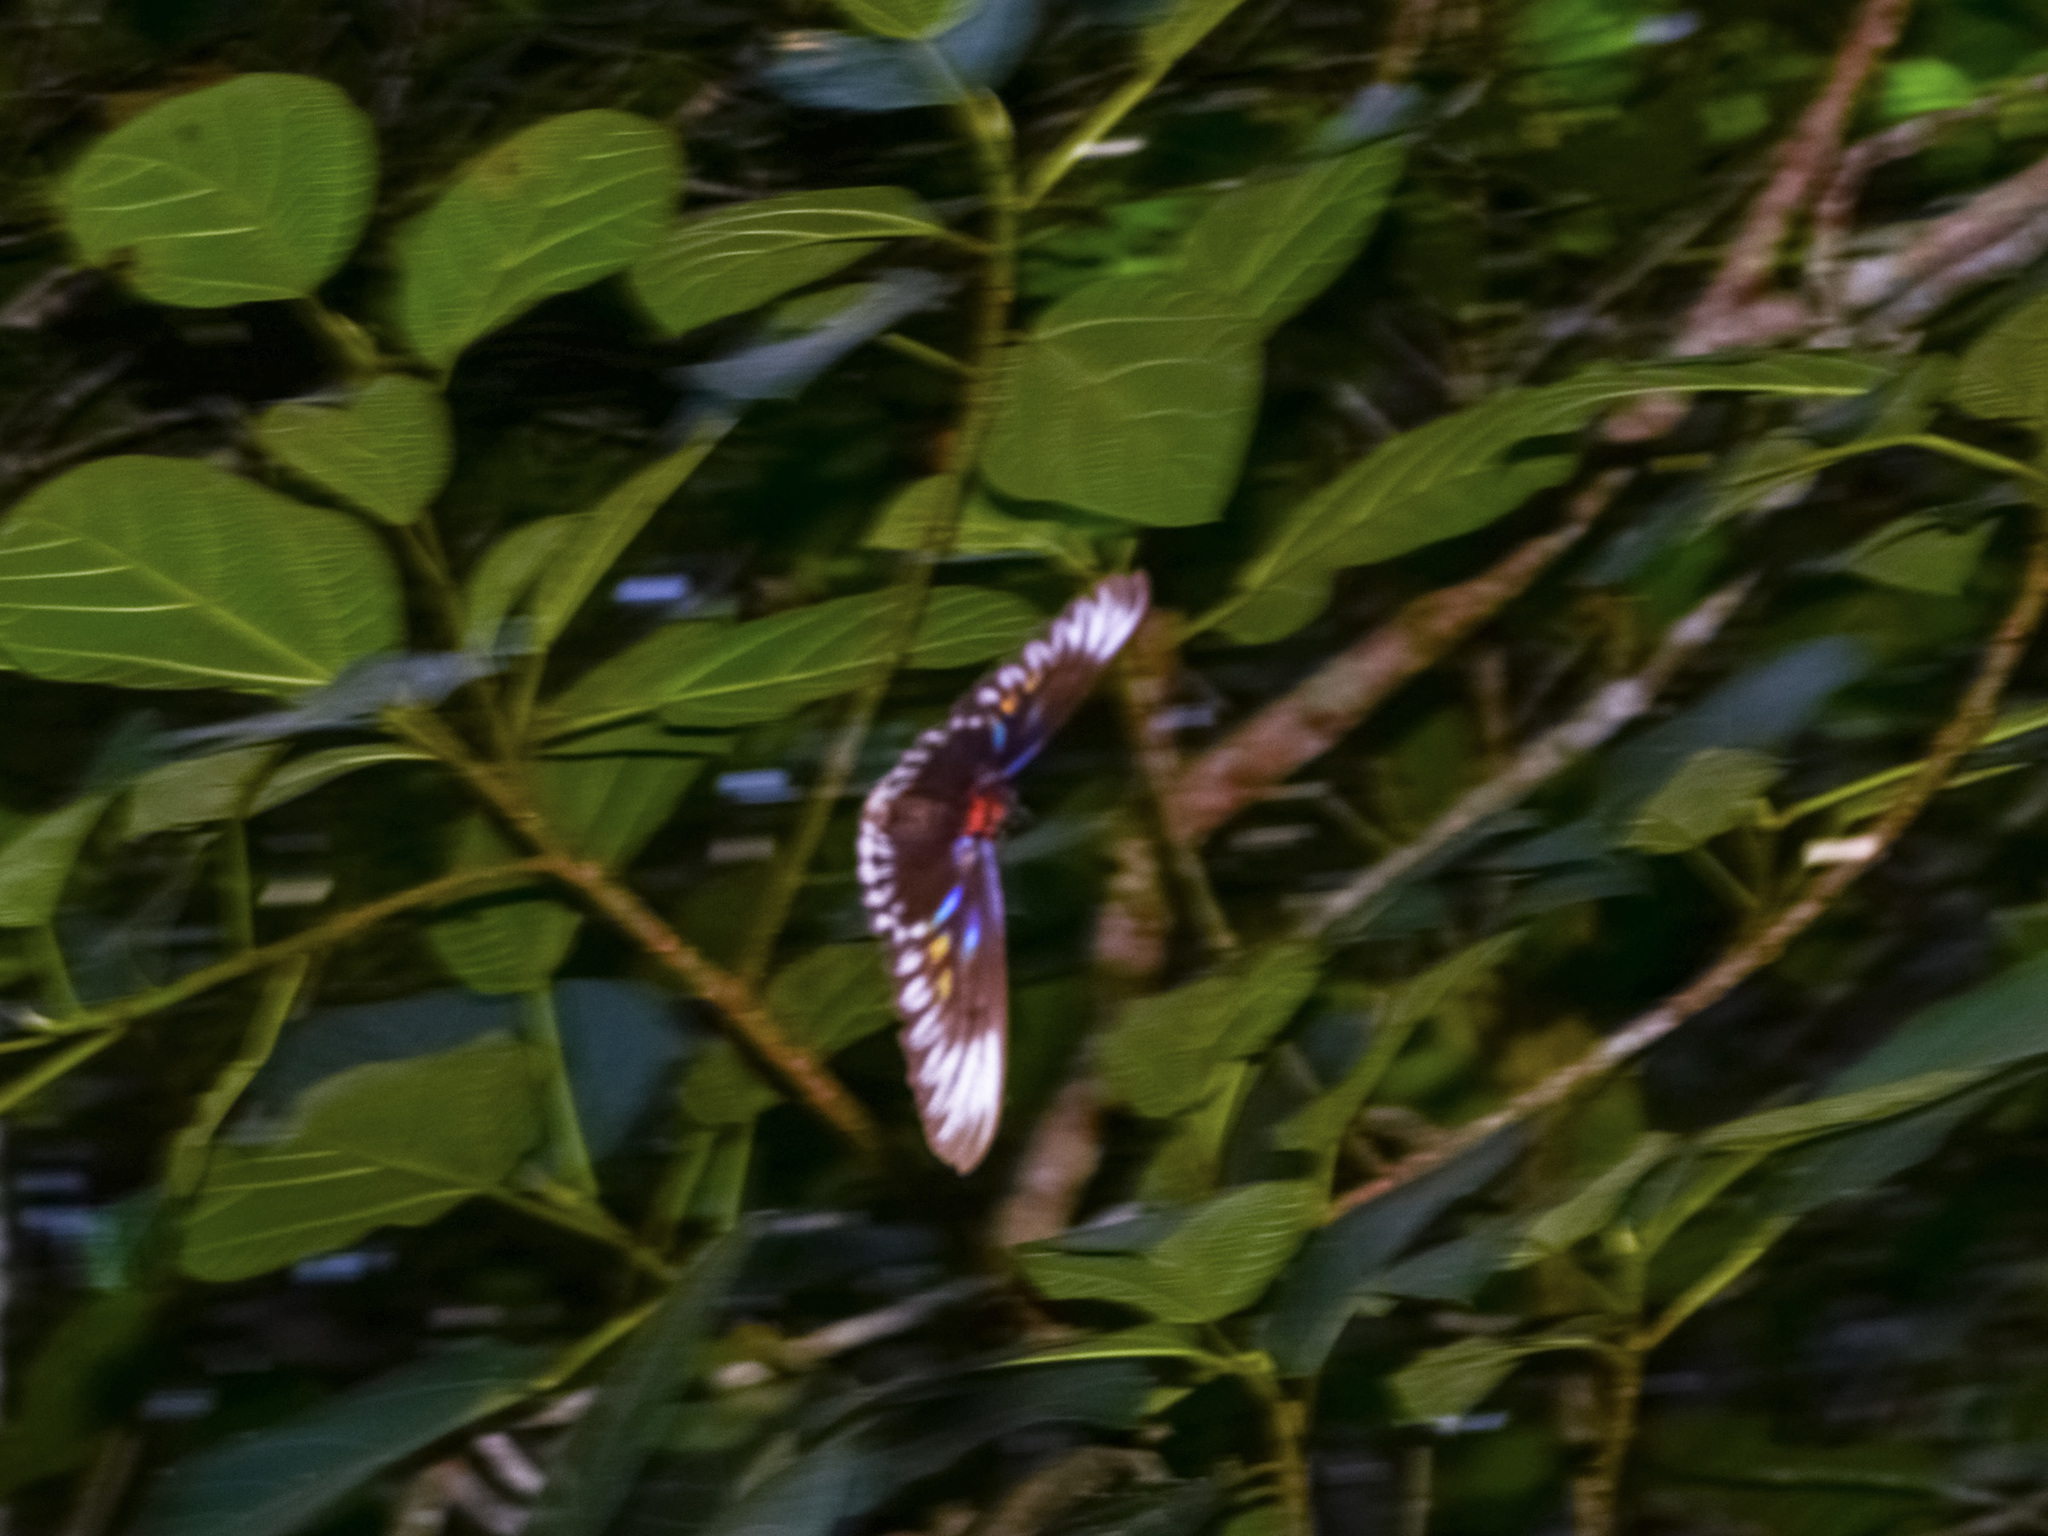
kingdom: Animalia
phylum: Arthropoda
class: Insecta
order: Lepidoptera
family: Papilionidae
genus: Trogonoptera
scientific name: Trogonoptera brookiana
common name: Raja brooke's birdwing
